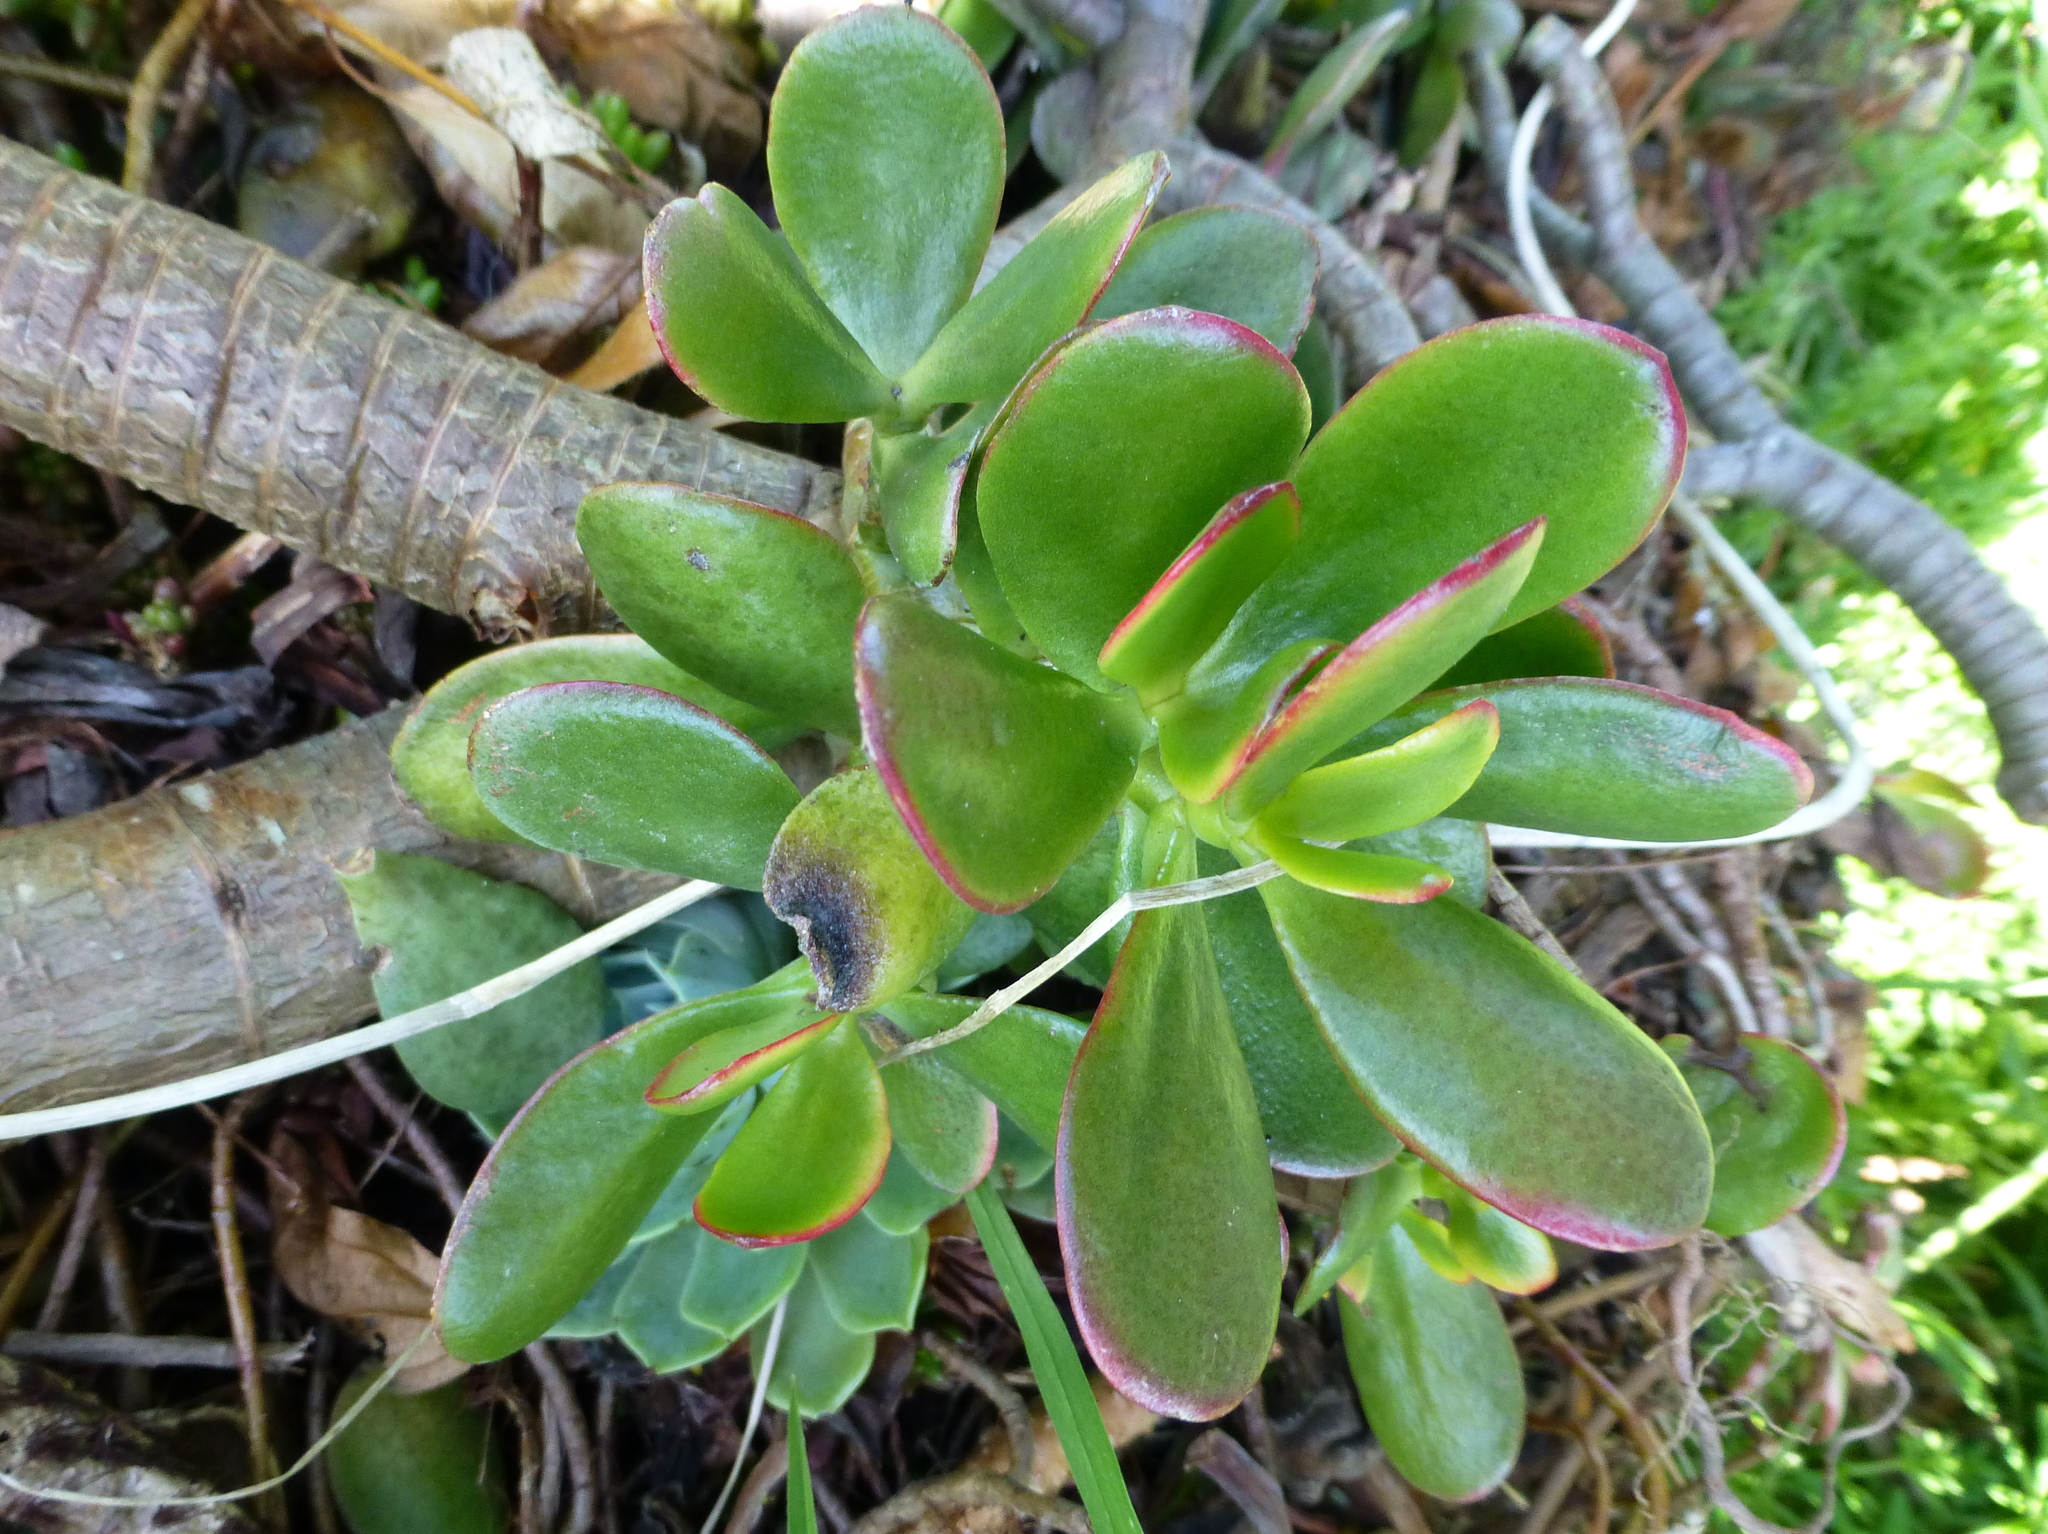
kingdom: Plantae
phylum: Tracheophyta
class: Magnoliopsida
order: Saxifragales
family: Crassulaceae
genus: Crassula
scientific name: Crassula ovata
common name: Jade plant
